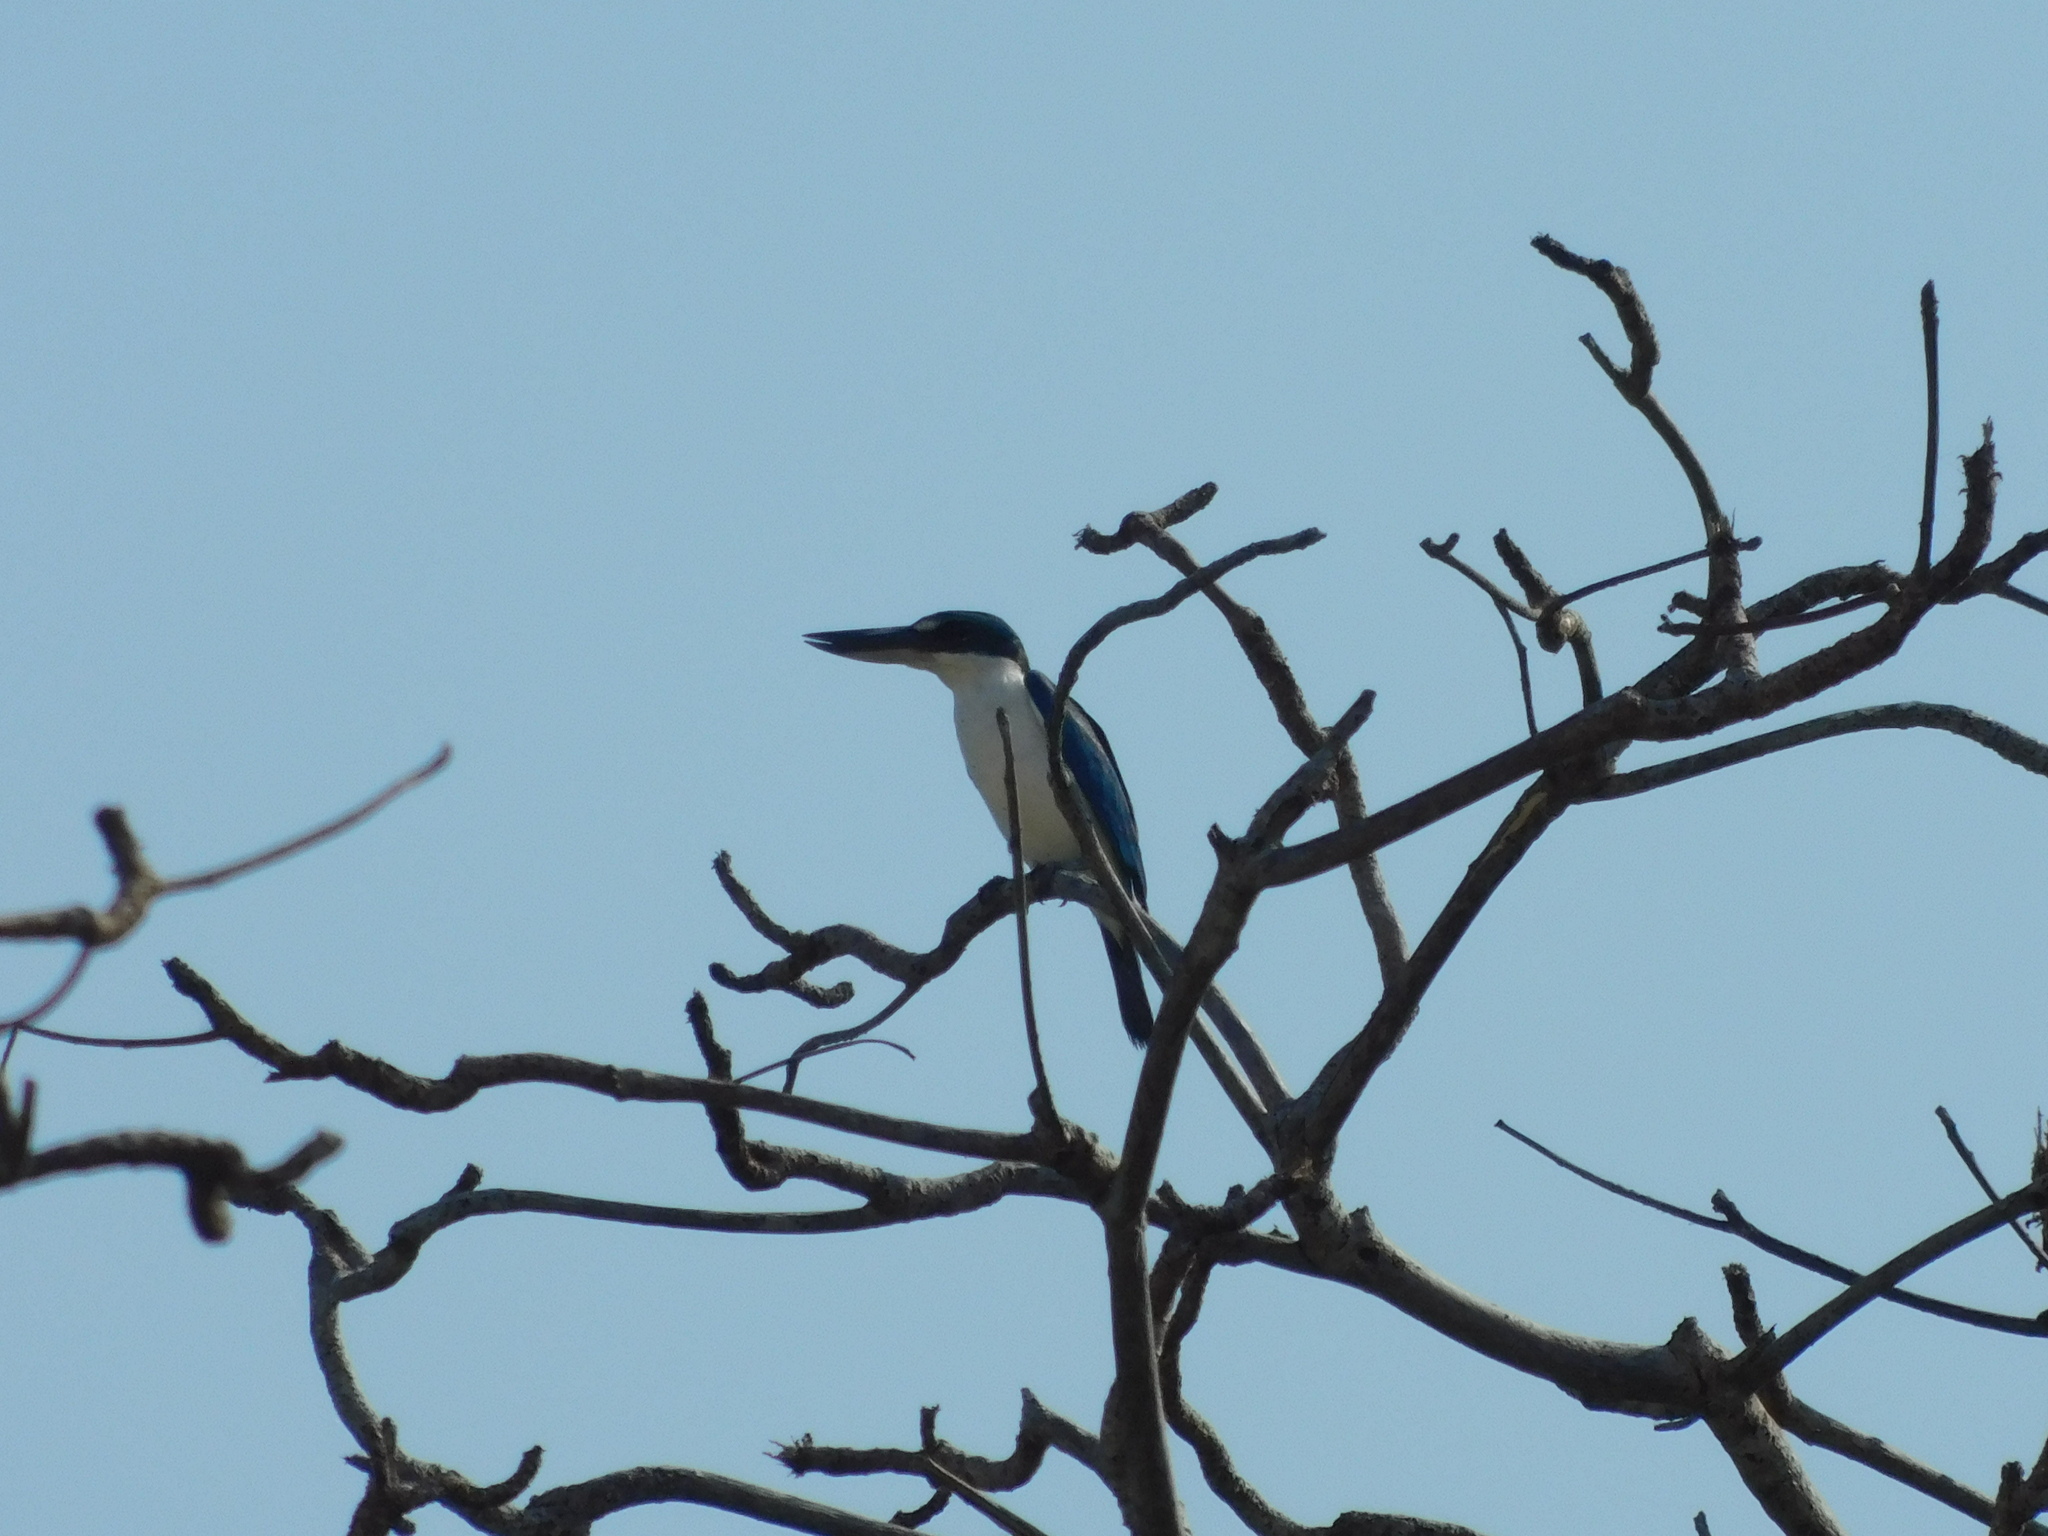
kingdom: Animalia
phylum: Chordata
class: Aves
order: Coraciiformes
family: Alcedinidae
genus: Todiramphus
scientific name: Todiramphus chloris
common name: Collared kingfisher
